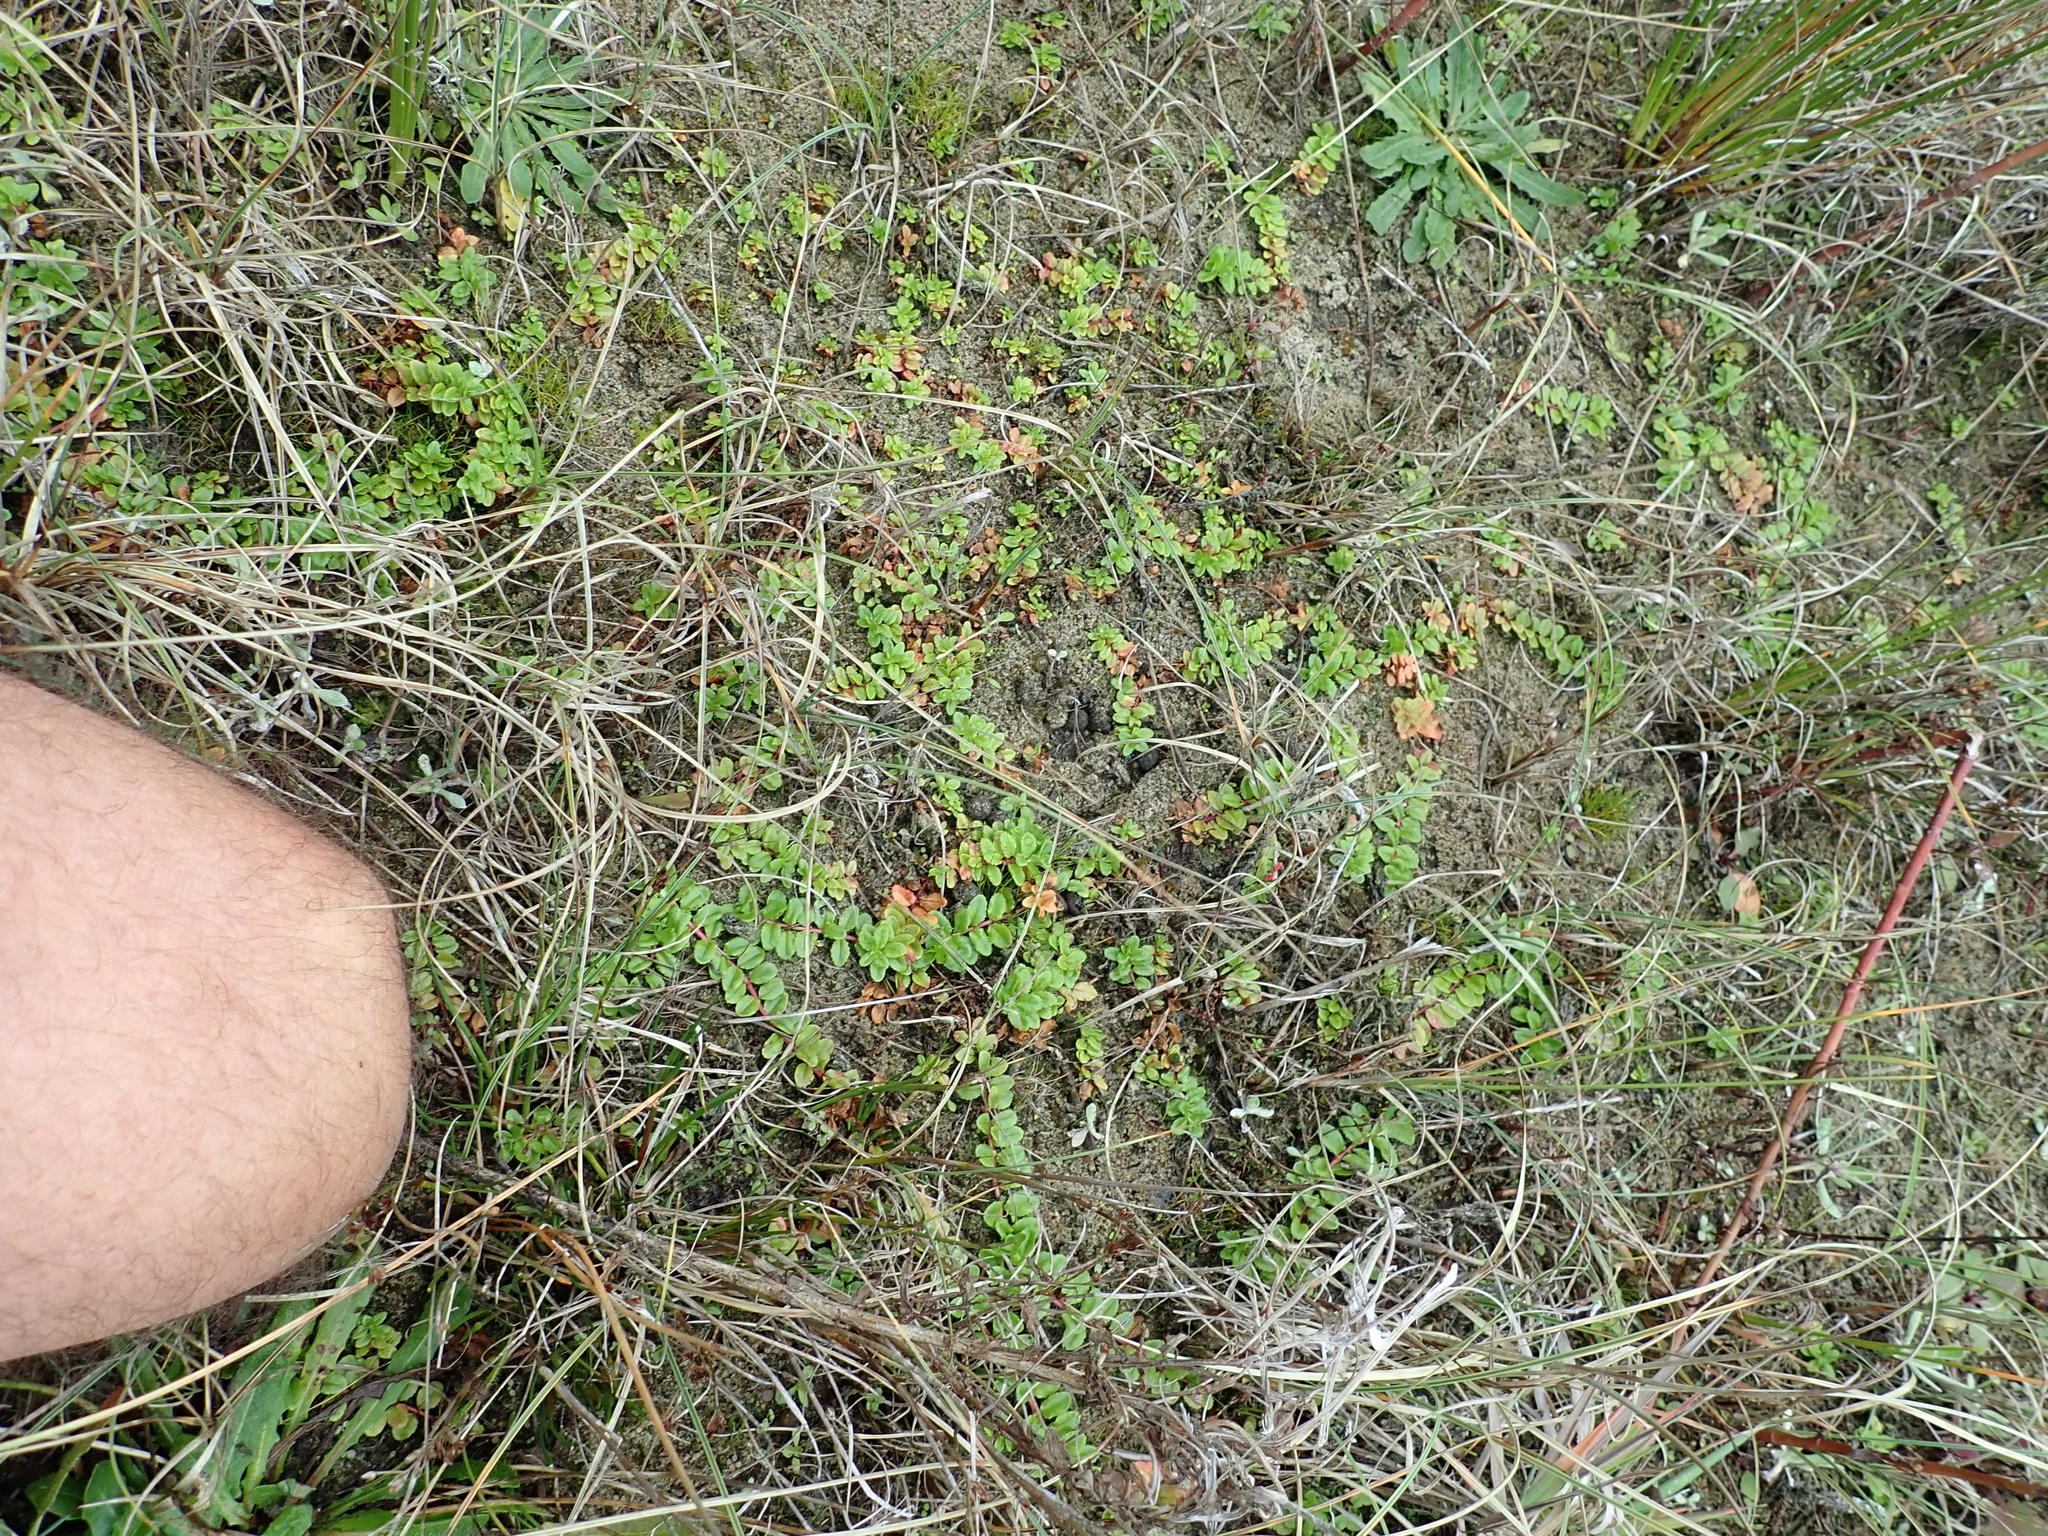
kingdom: Plantae
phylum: Tracheophyta
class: Magnoliopsida
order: Myrtales
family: Onagraceae
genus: Epilobium
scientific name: Epilobium billardiereanum
